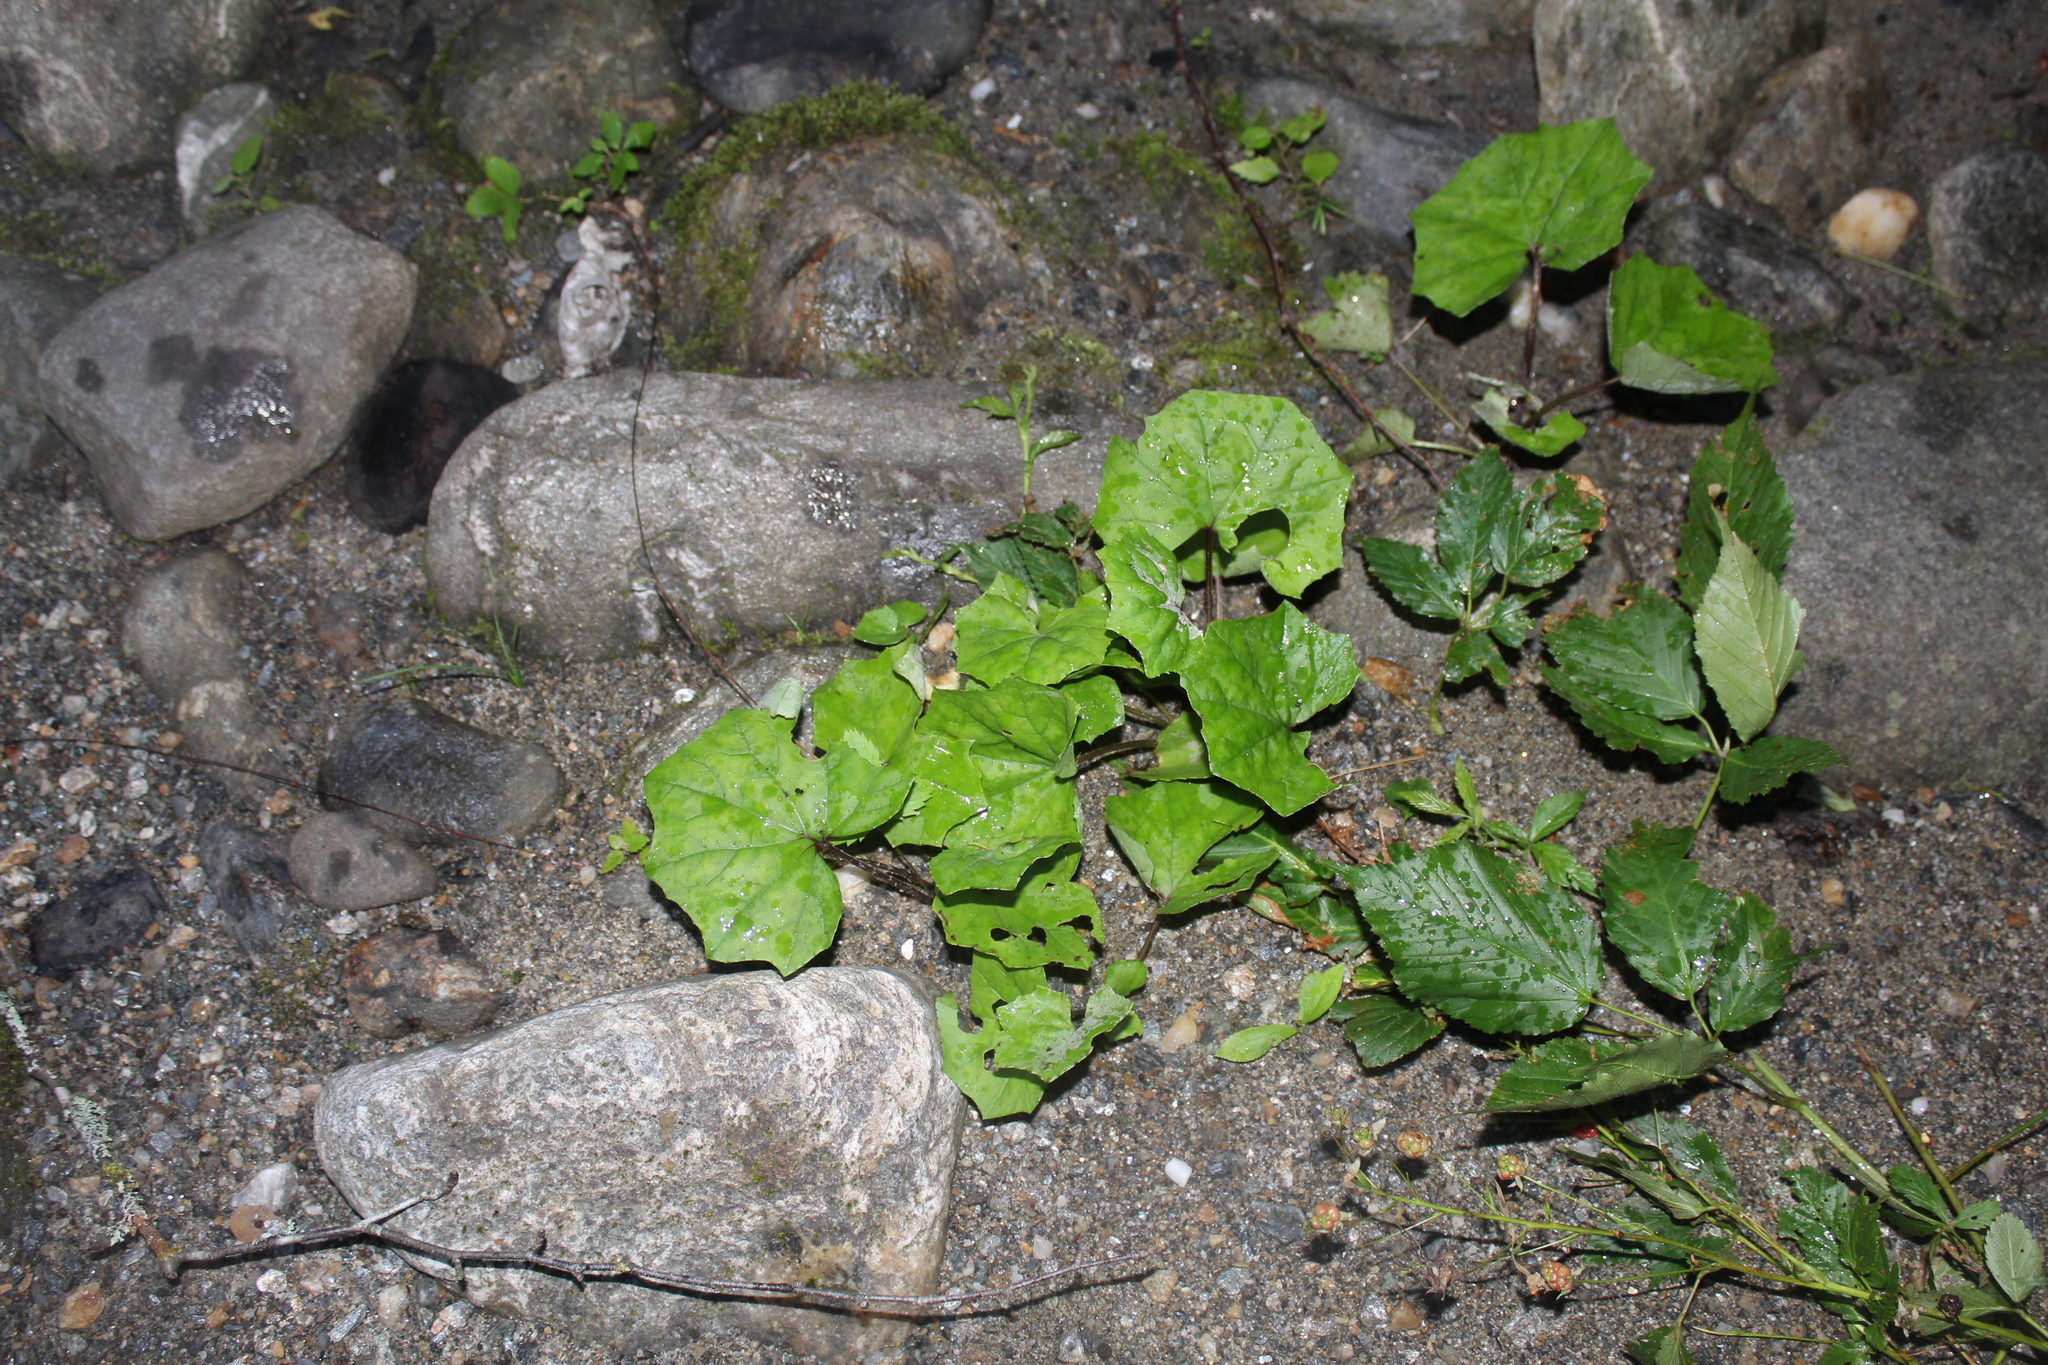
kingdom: Plantae
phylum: Tracheophyta
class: Magnoliopsida
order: Asterales
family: Asteraceae
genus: Tussilago
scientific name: Tussilago farfara
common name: Coltsfoot
